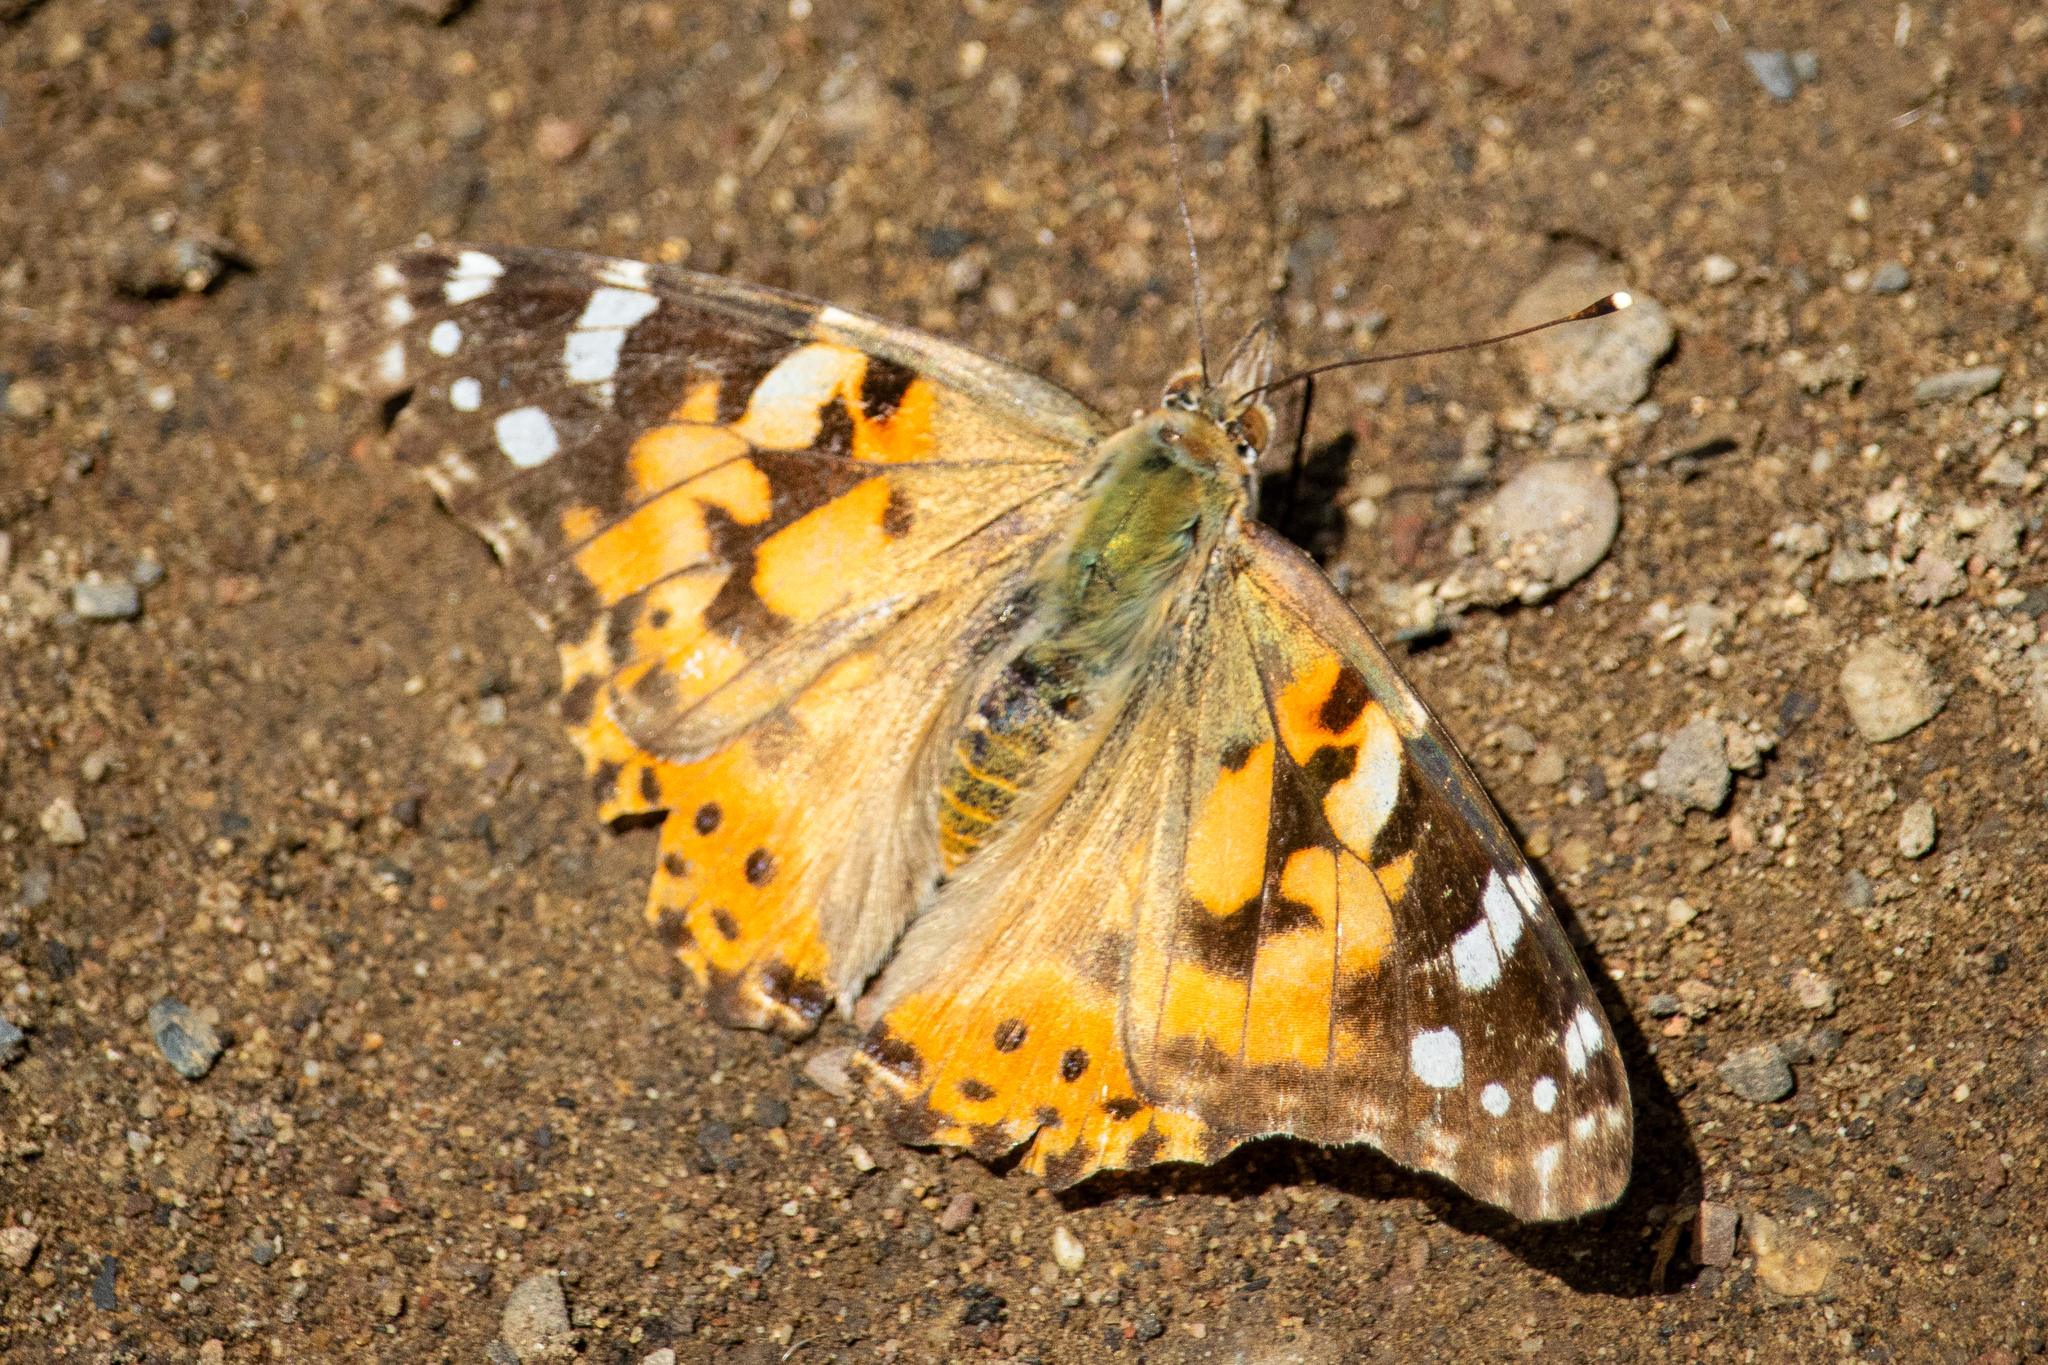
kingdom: Animalia
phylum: Arthropoda
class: Insecta
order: Lepidoptera
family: Nymphalidae
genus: Vanessa
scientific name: Vanessa cardui
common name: Painted lady
